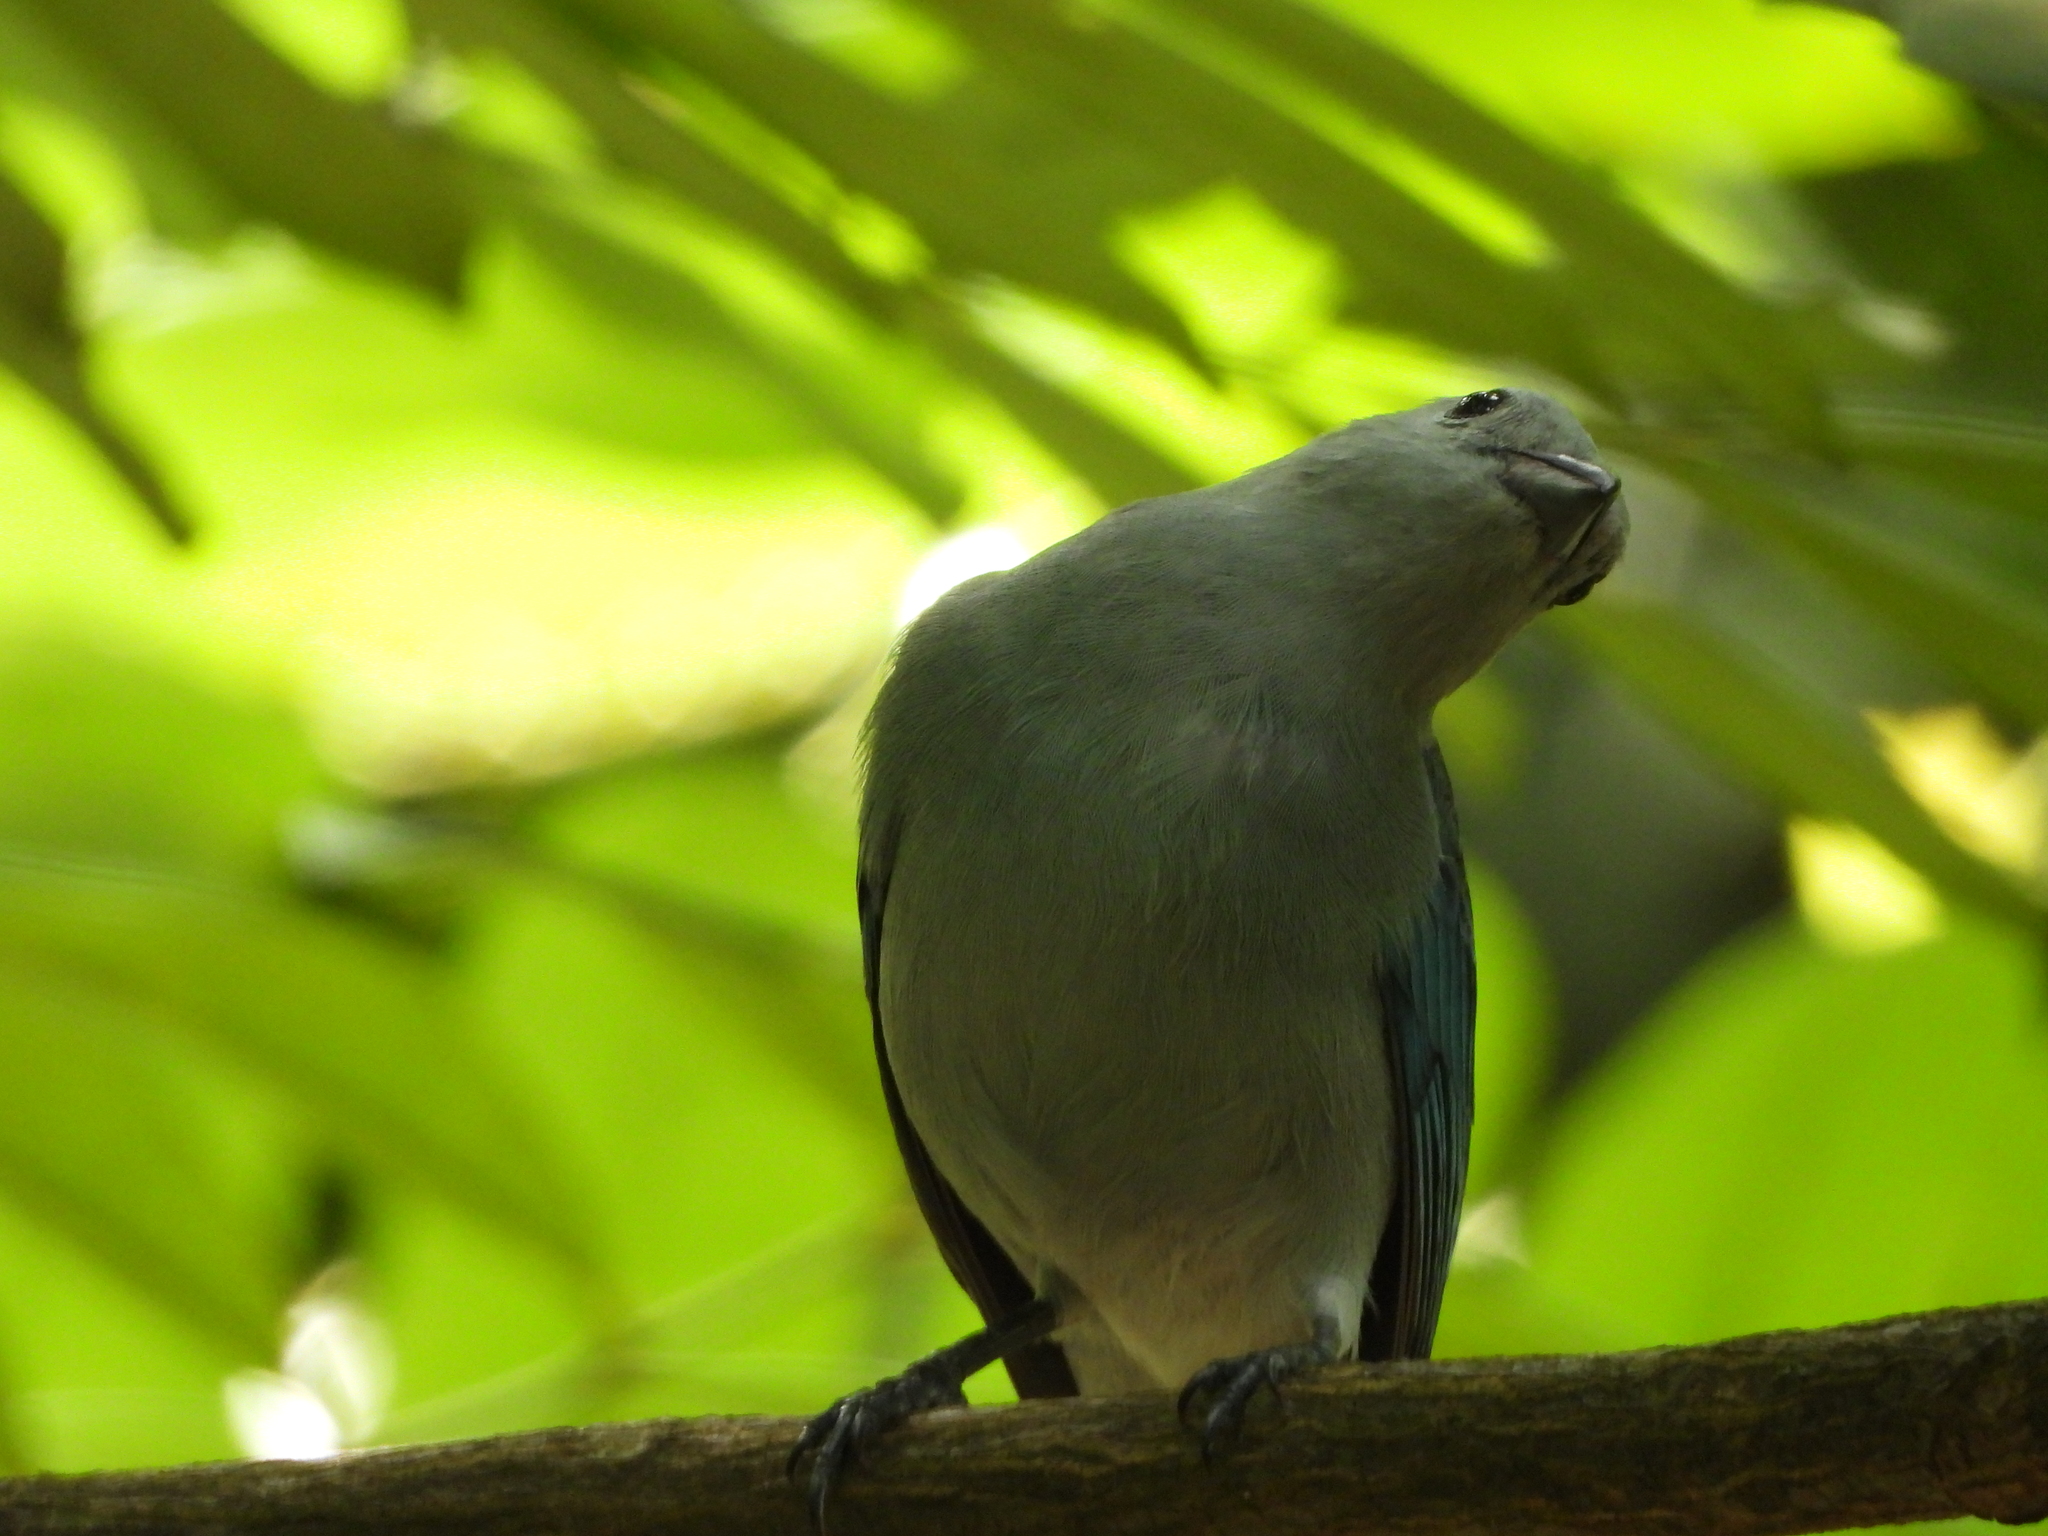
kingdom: Animalia
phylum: Chordata
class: Aves
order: Passeriformes
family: Thraupidae
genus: Thraupis
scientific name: Thraupis episcopus
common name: Blue-grey tanager
